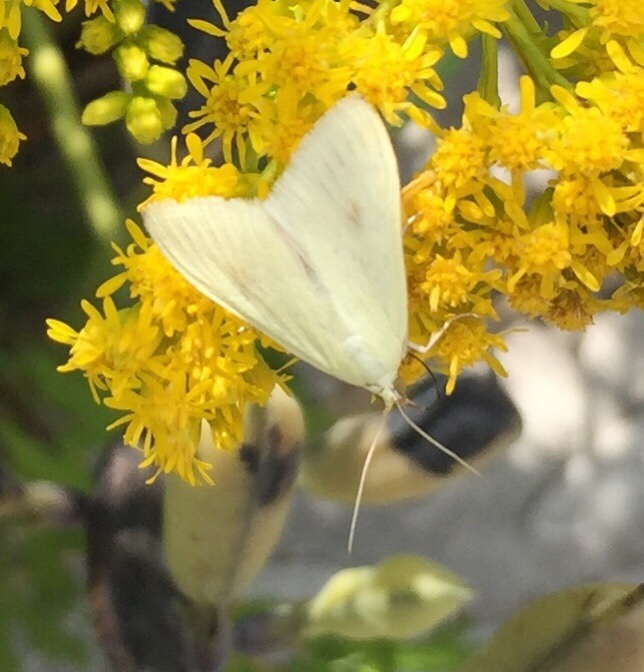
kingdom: Animalia
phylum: Arthropoda
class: Insecta
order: Lepidoptera
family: Crambidae
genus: Sitochroa
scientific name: Sitochroa palealis
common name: Greenish-yellow sitochroa moth
